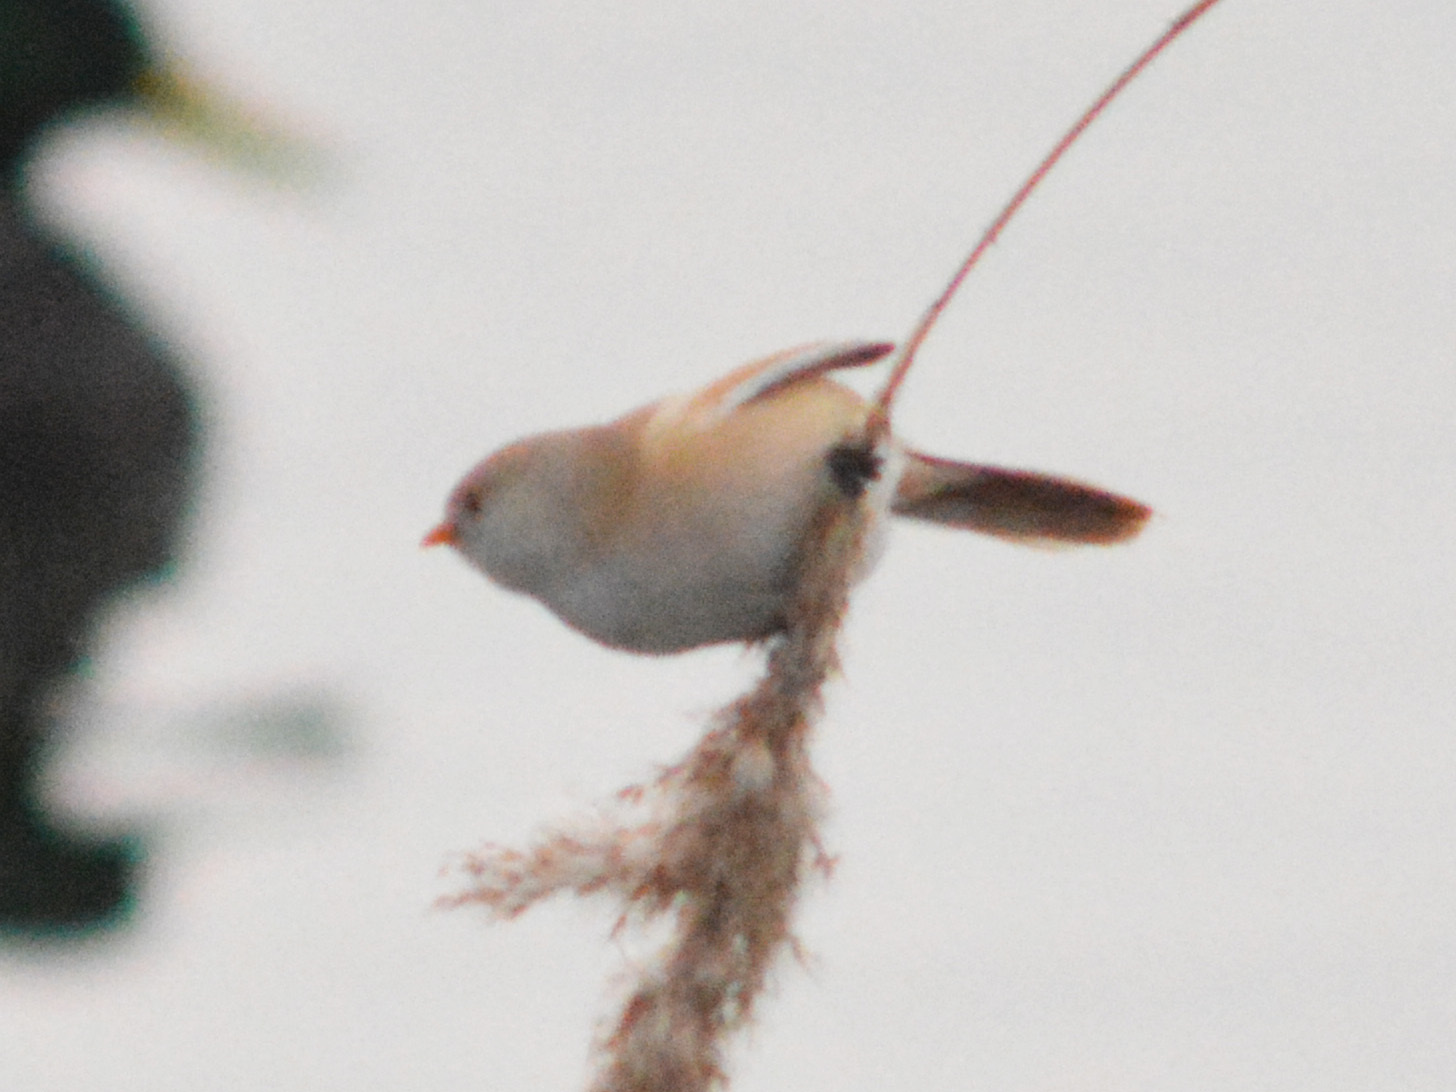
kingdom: Animalia
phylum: Chordata
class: Aves
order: Passeriformes
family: Panuridae
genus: Panurus
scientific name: Panurus biarmicus
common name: Bearded reedling
